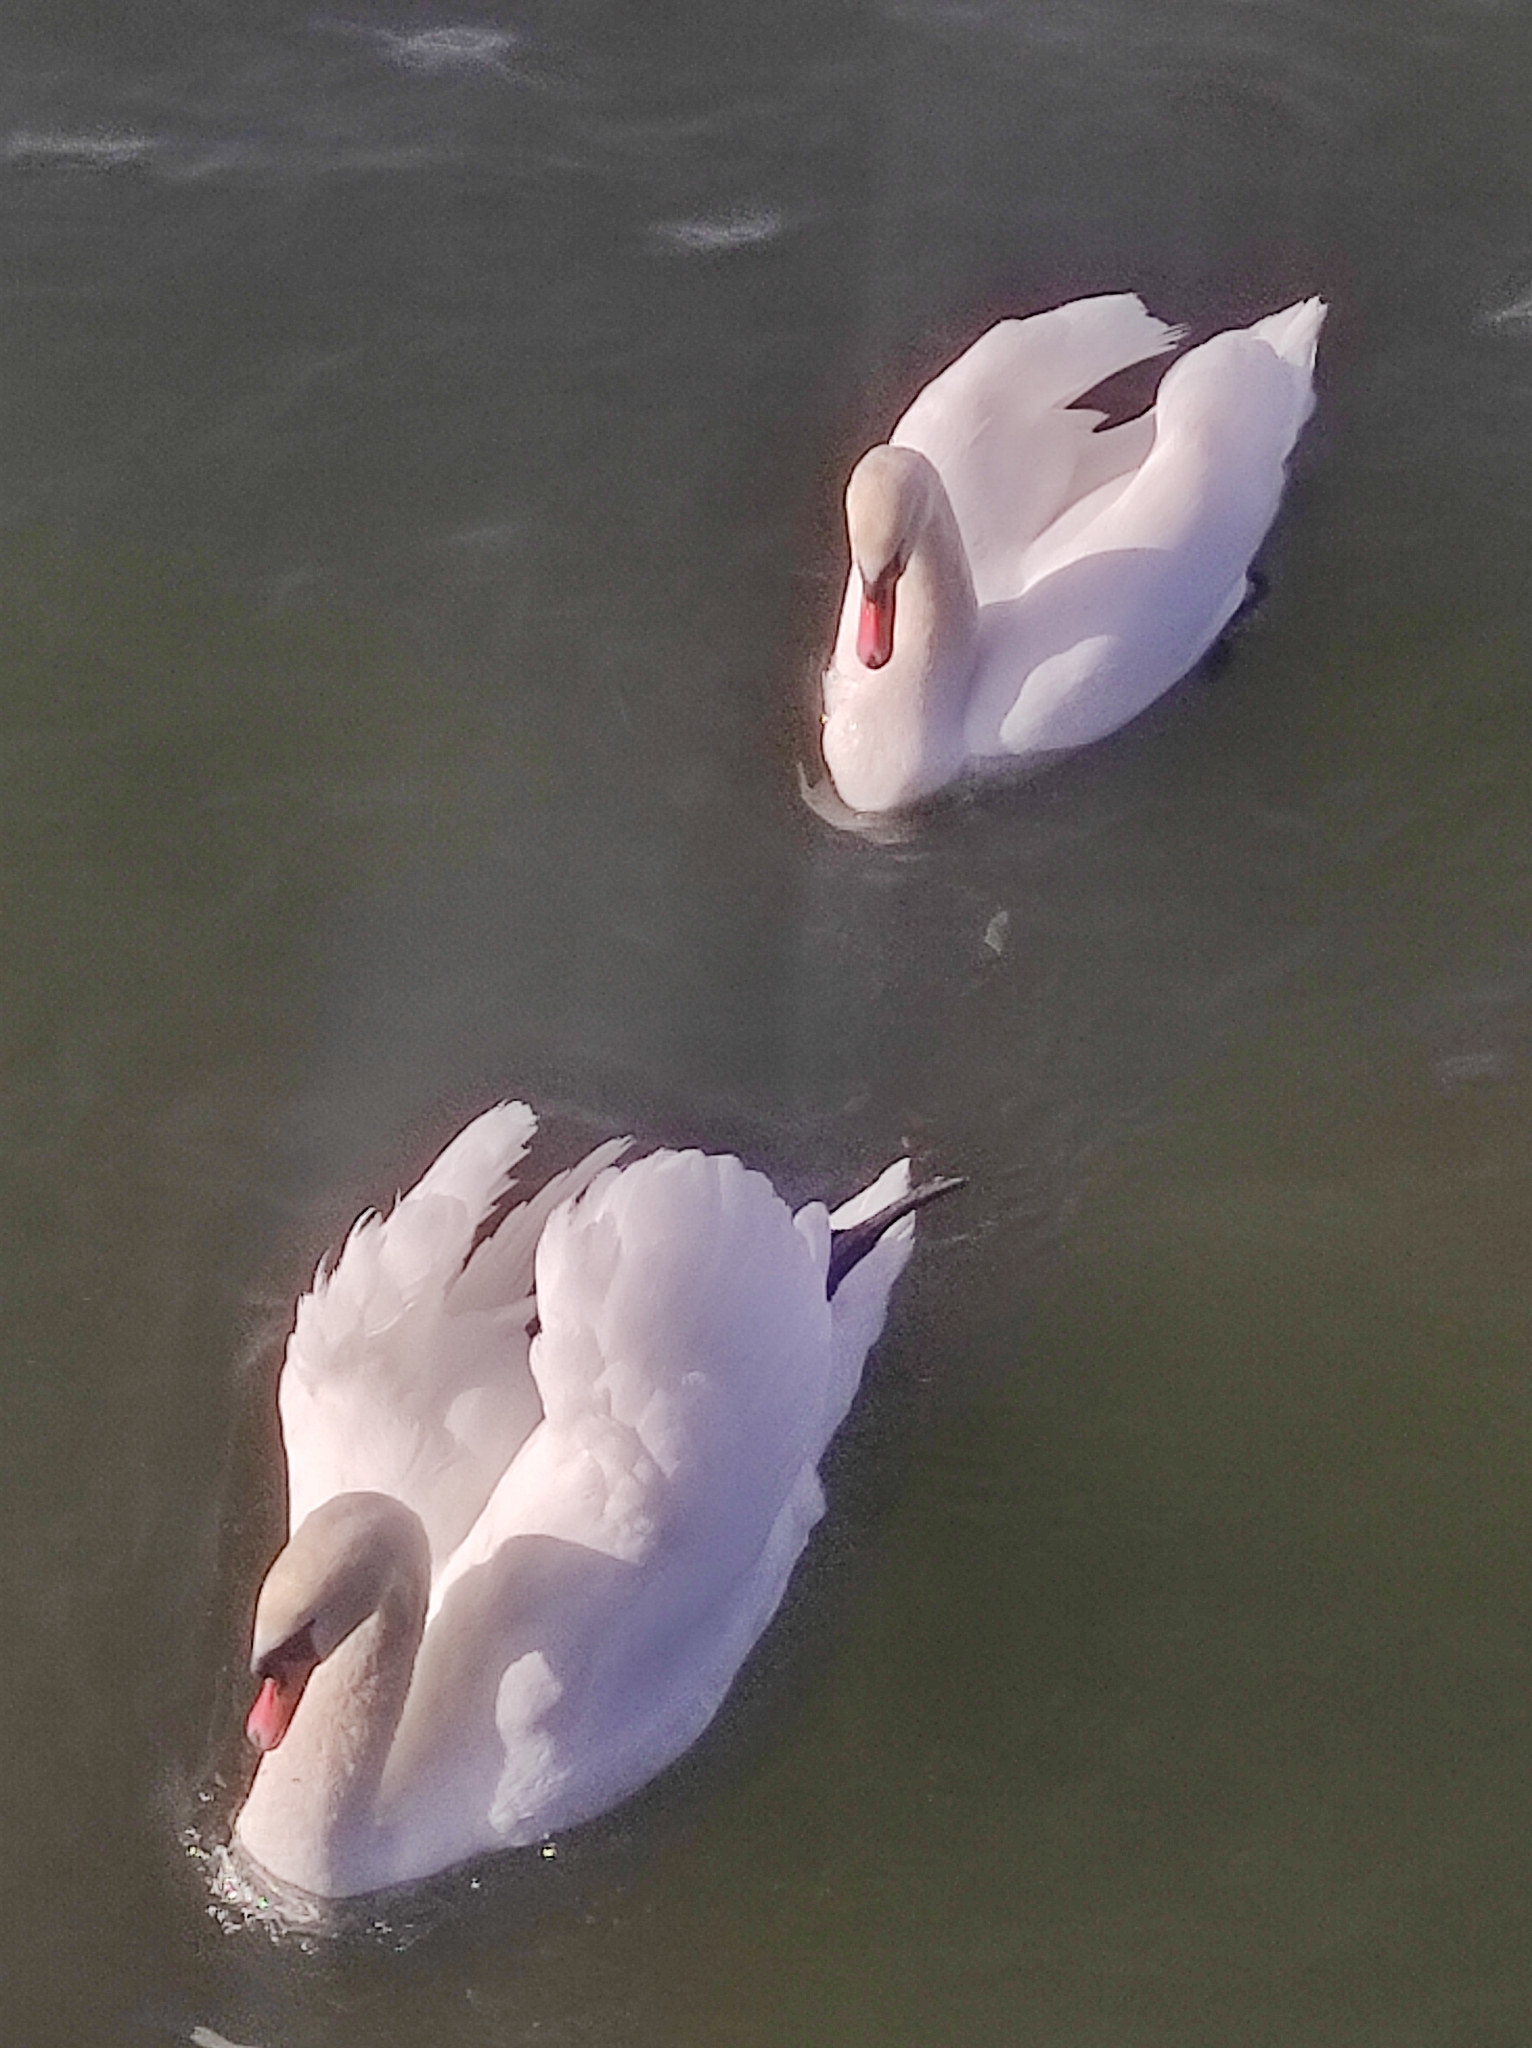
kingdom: Animalia
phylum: Chordata
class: Aves
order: Anseriformes
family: Anatidae
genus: Cygnus
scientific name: Cygnus olor
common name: Mute swan
